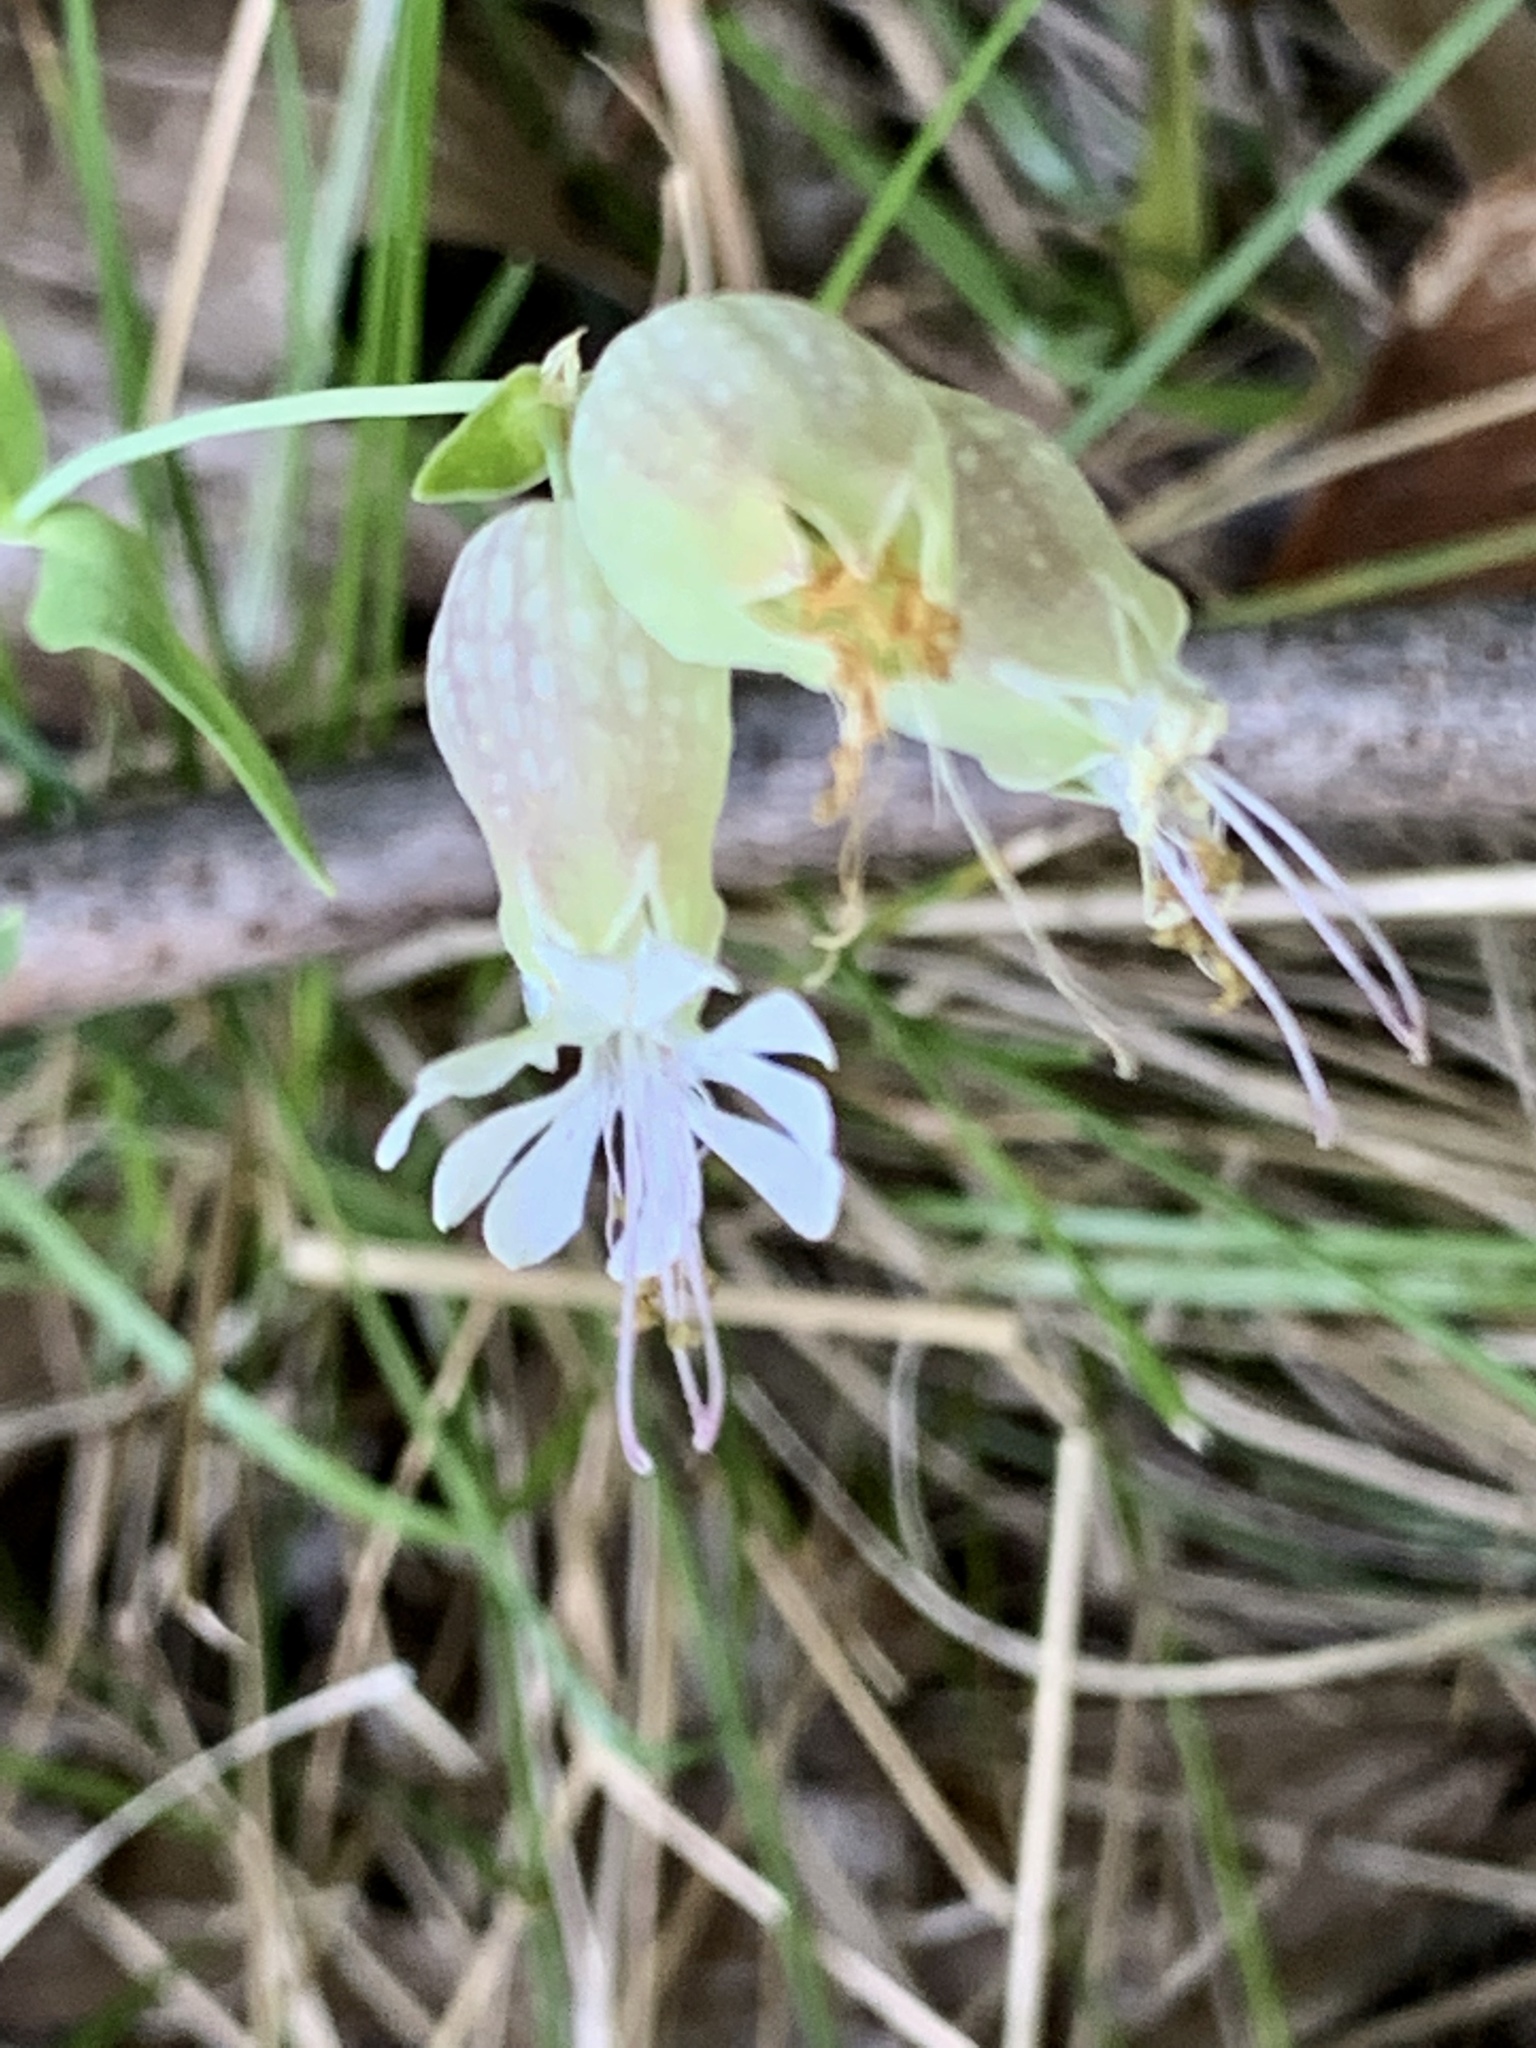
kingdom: Plantae
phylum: Tracheophyta
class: Magnoliopsida
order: Caryophyllales
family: Caryophyllaceae
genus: Silene
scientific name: Silene vulgaris
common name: Bladder campion
